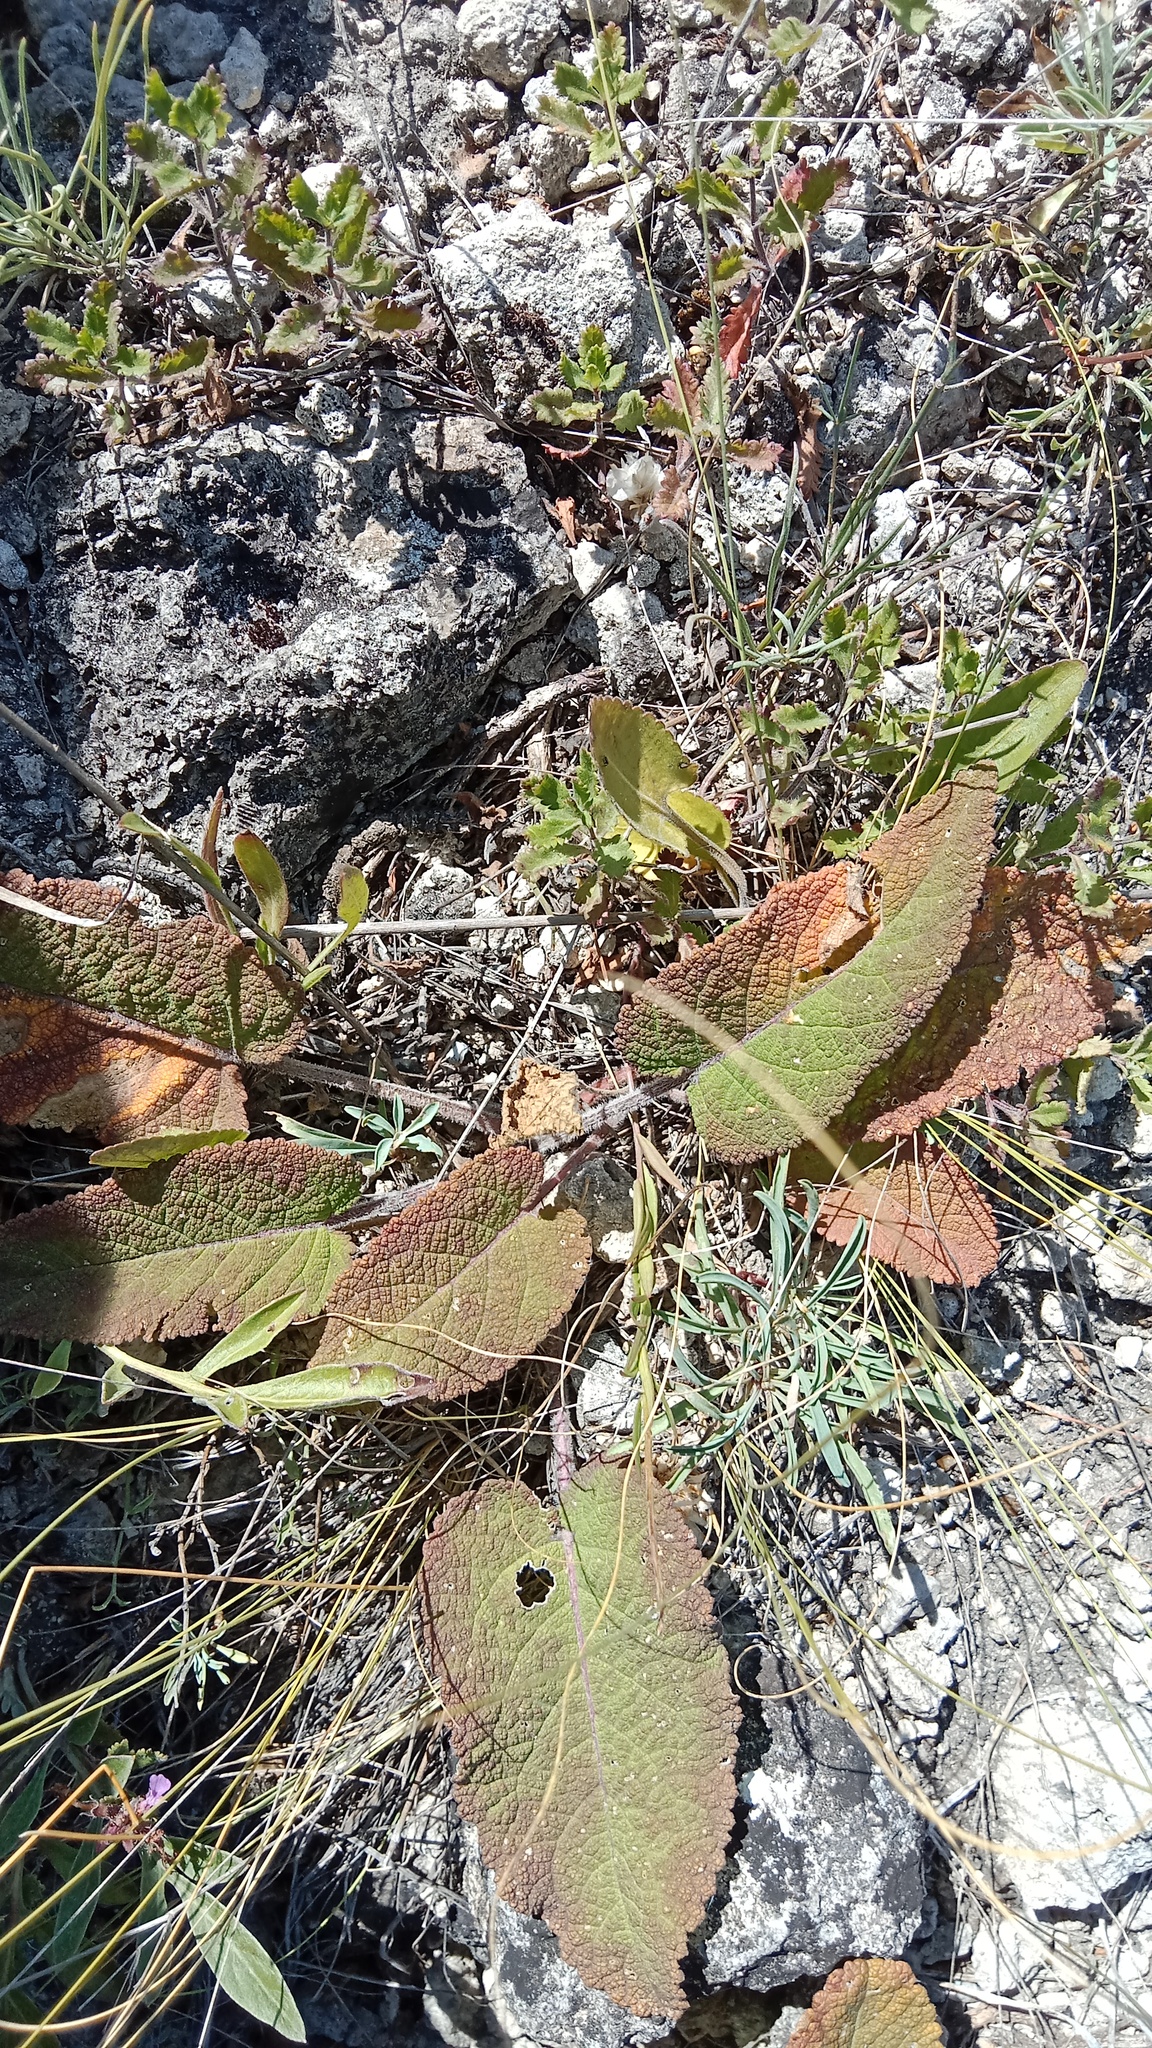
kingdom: Plantae
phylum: Tracheophyta
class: Magnoliopsida
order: Lamiales
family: Lamiaceae
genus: Salvia
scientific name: Salvia nutans
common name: Nodding sage
